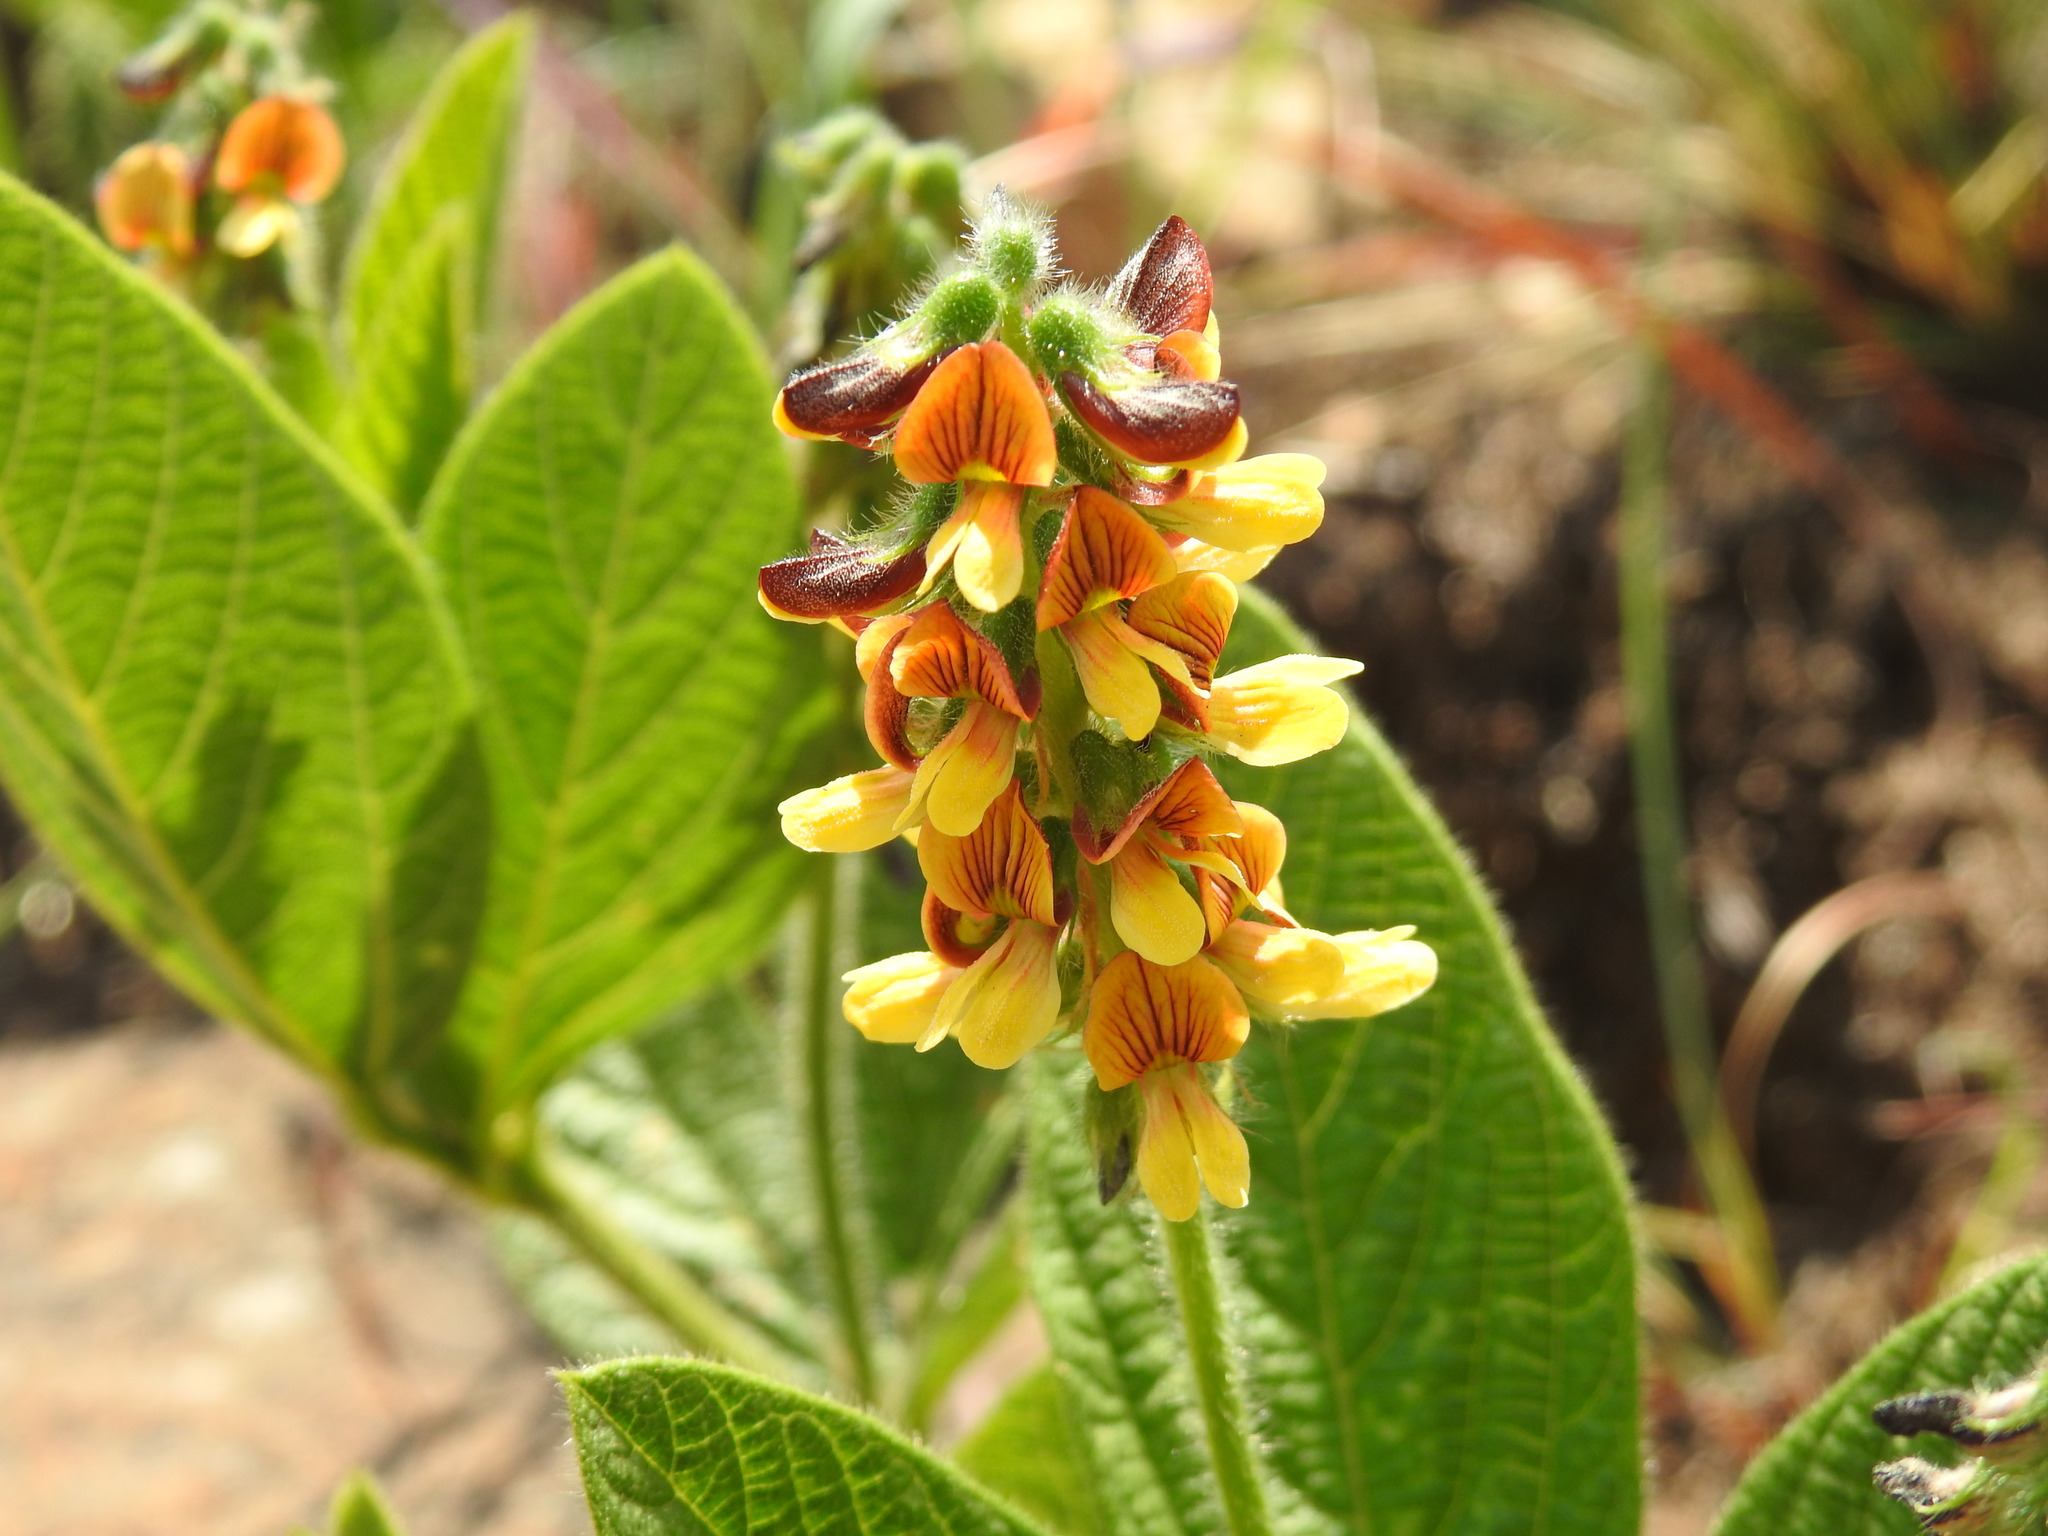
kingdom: Plantae
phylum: Tracheophyta
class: Magnoliopsida
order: Fabales
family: Fabaceae
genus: Eriosema
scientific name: Eriosema cordatum
